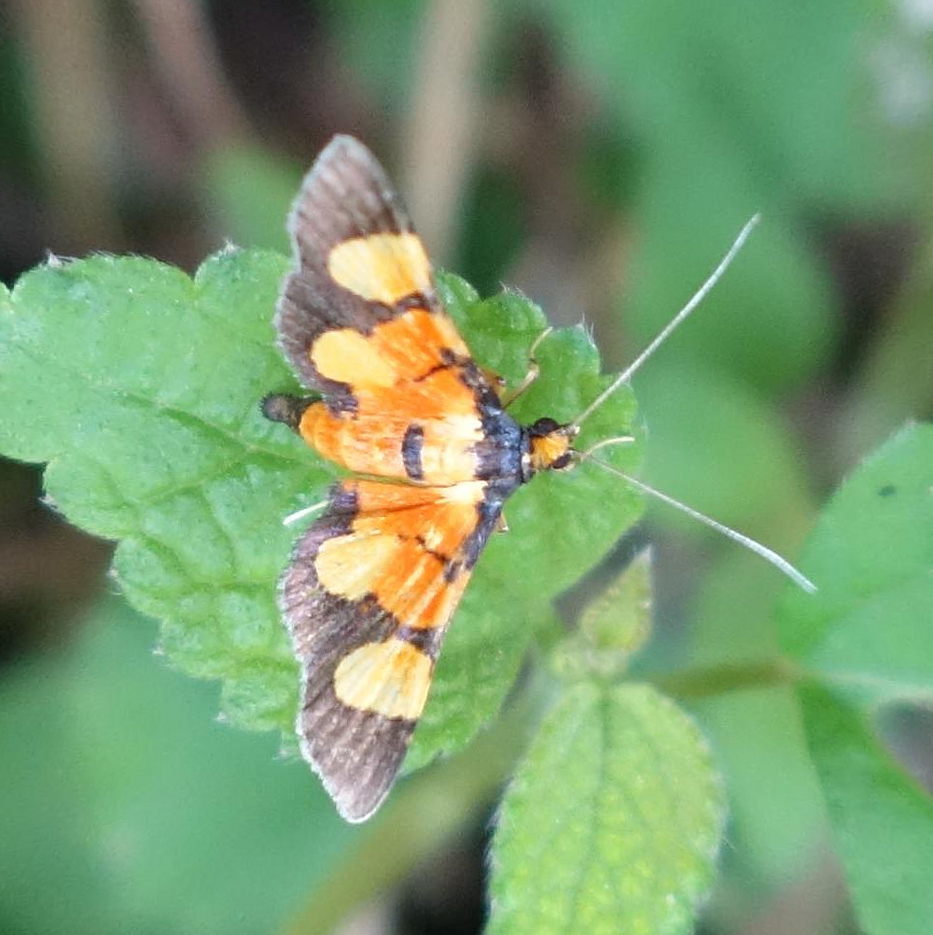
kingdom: Animalia
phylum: Arthropoda
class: Insecta
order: Lepidoptera
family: Crambidae
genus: Aethaloessa
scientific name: Aethaloessa calidalis
